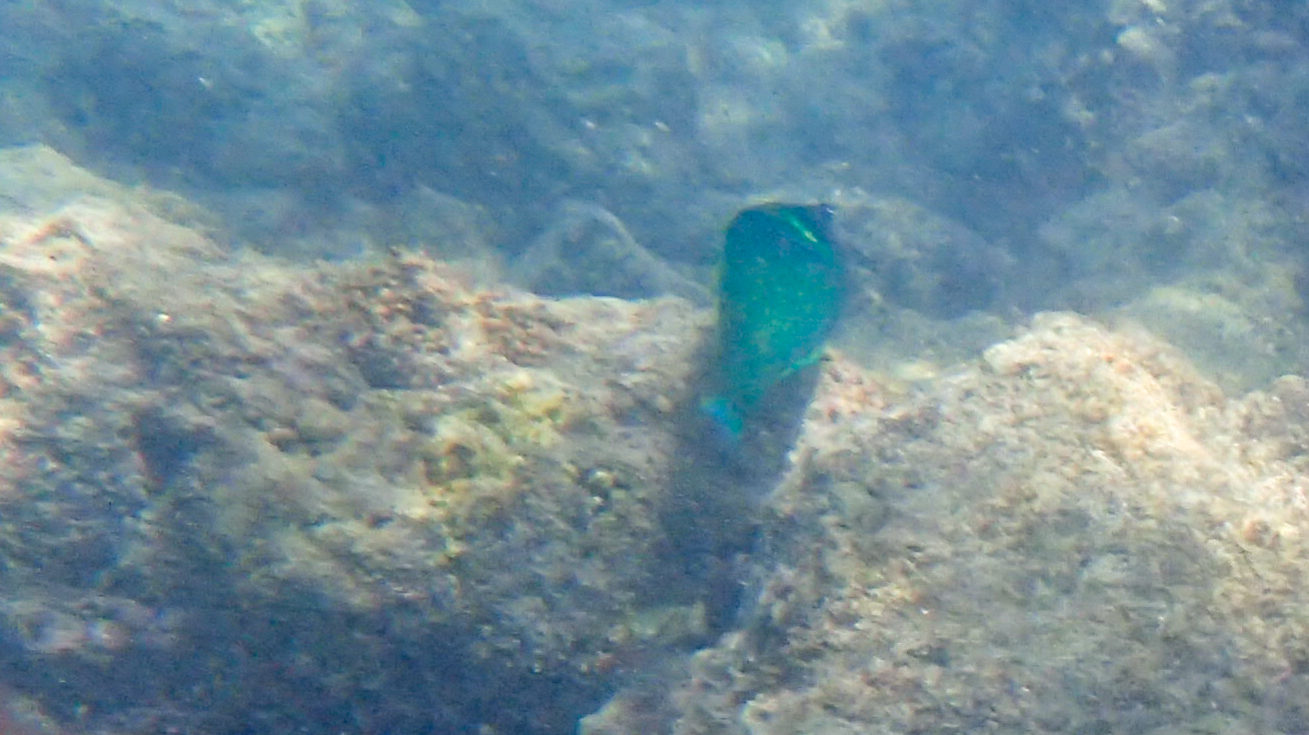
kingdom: Animalia
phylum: Chordata
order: Perciformes
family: Labridae
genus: Gomphosus
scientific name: Gomphosus varius
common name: Bird wrasse
